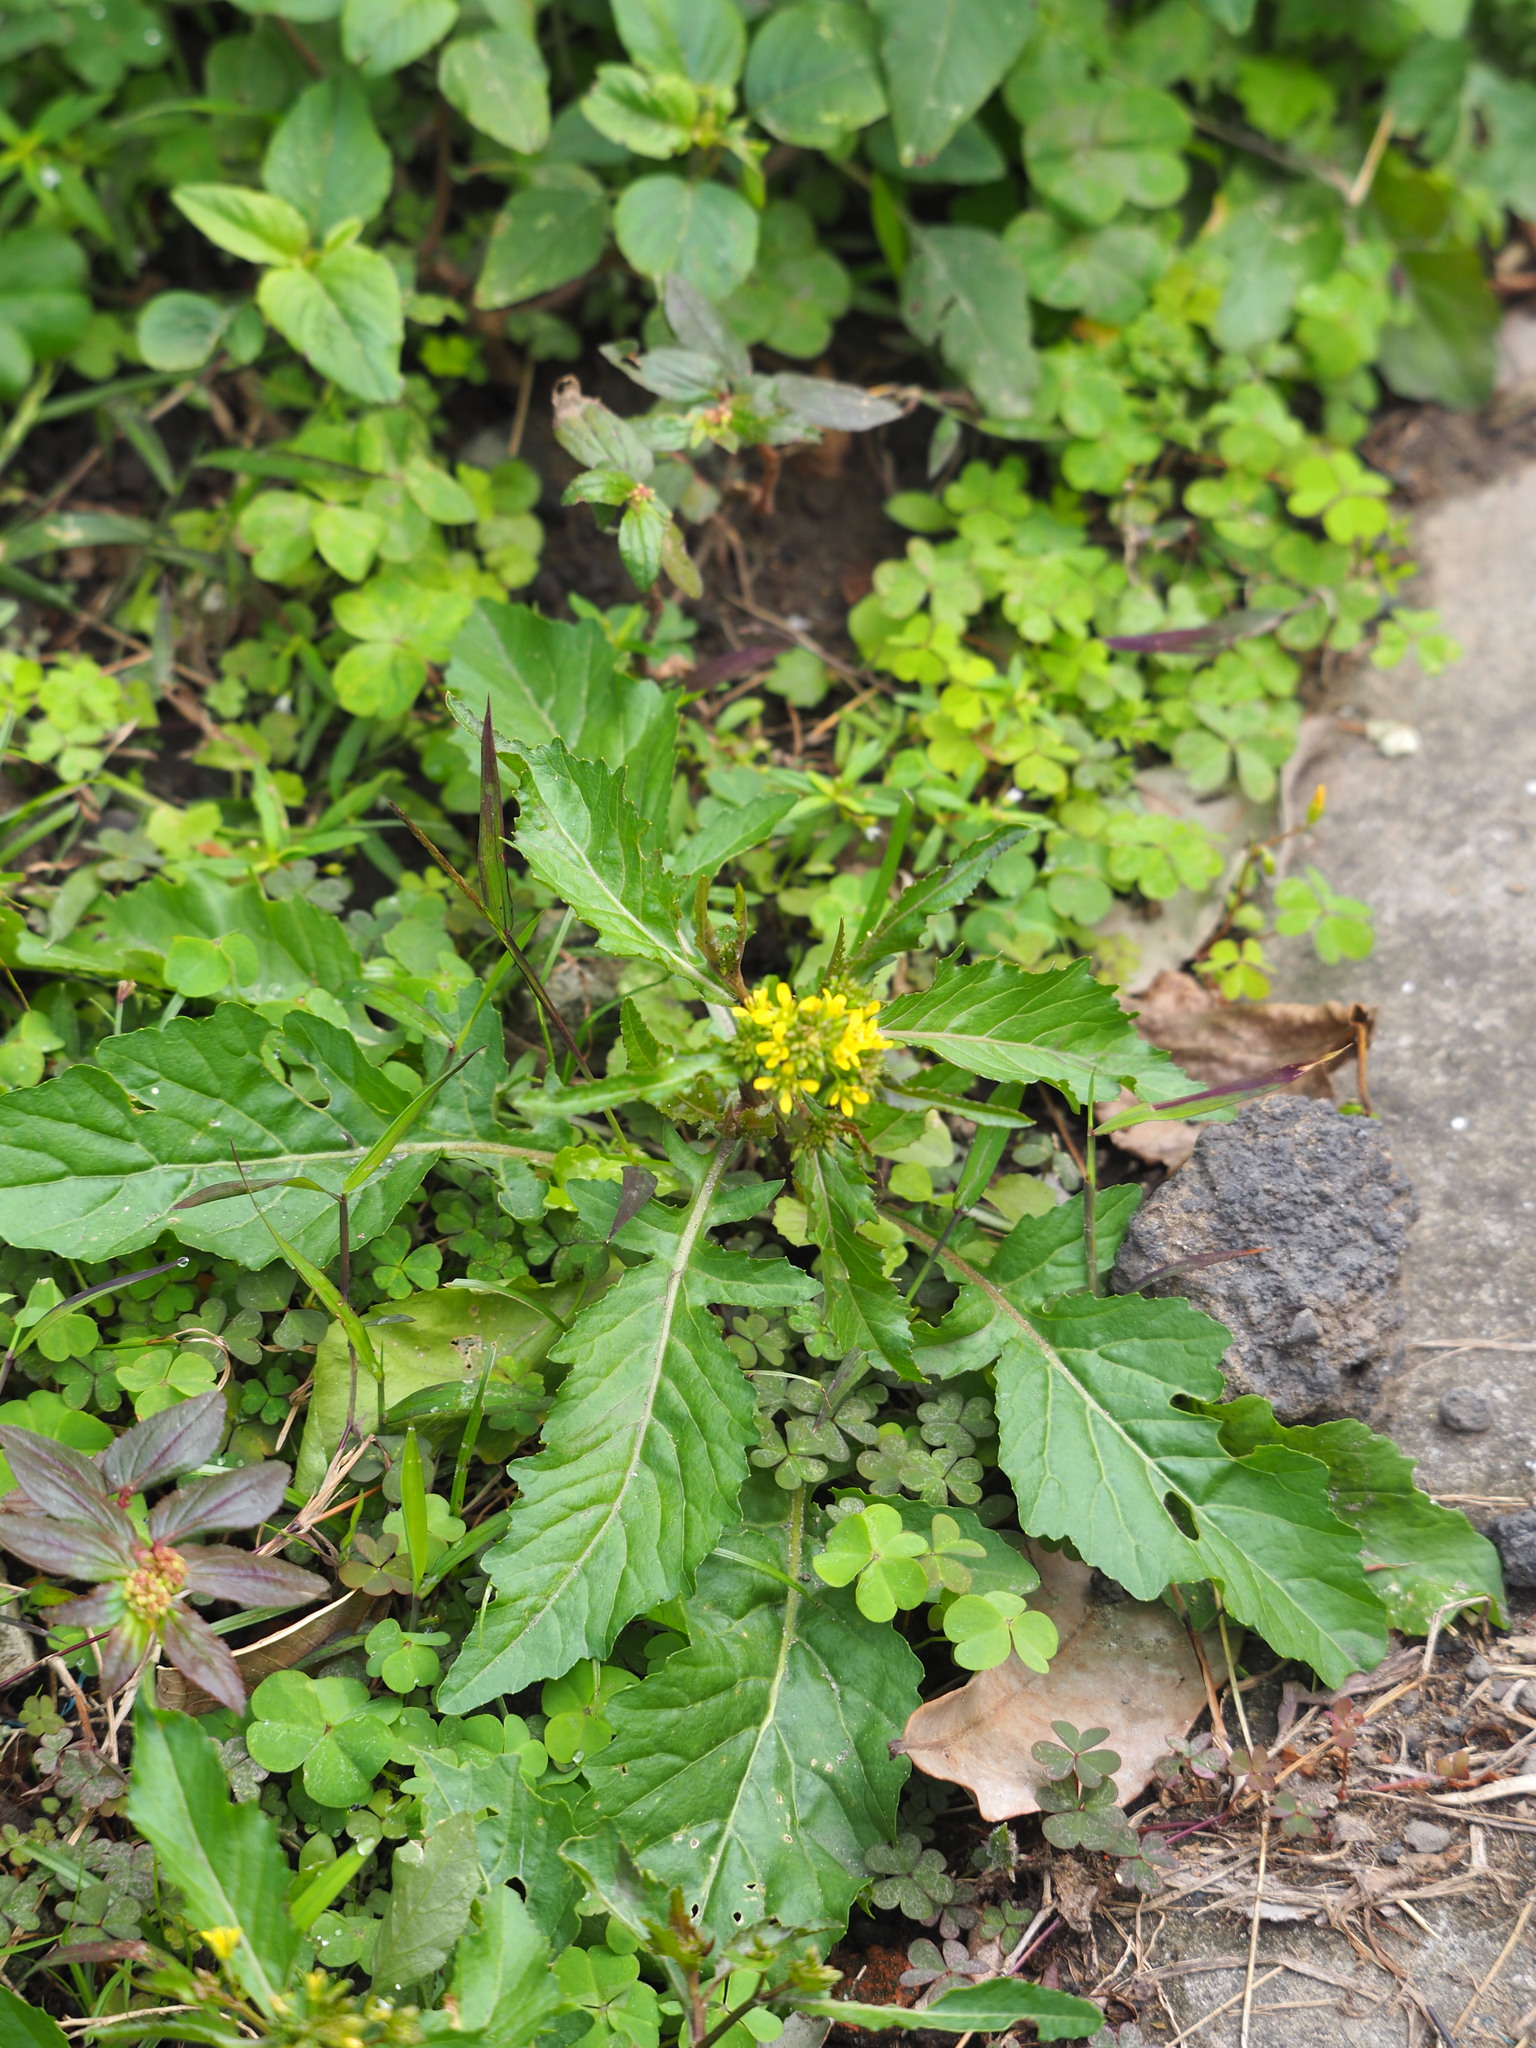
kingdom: Plantae
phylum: Tracheophyta
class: Magnoliopsida
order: Brassicales
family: Brassicaceae
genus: Rorippa
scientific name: Rorippa indica
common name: Variableleaf yellowcress
